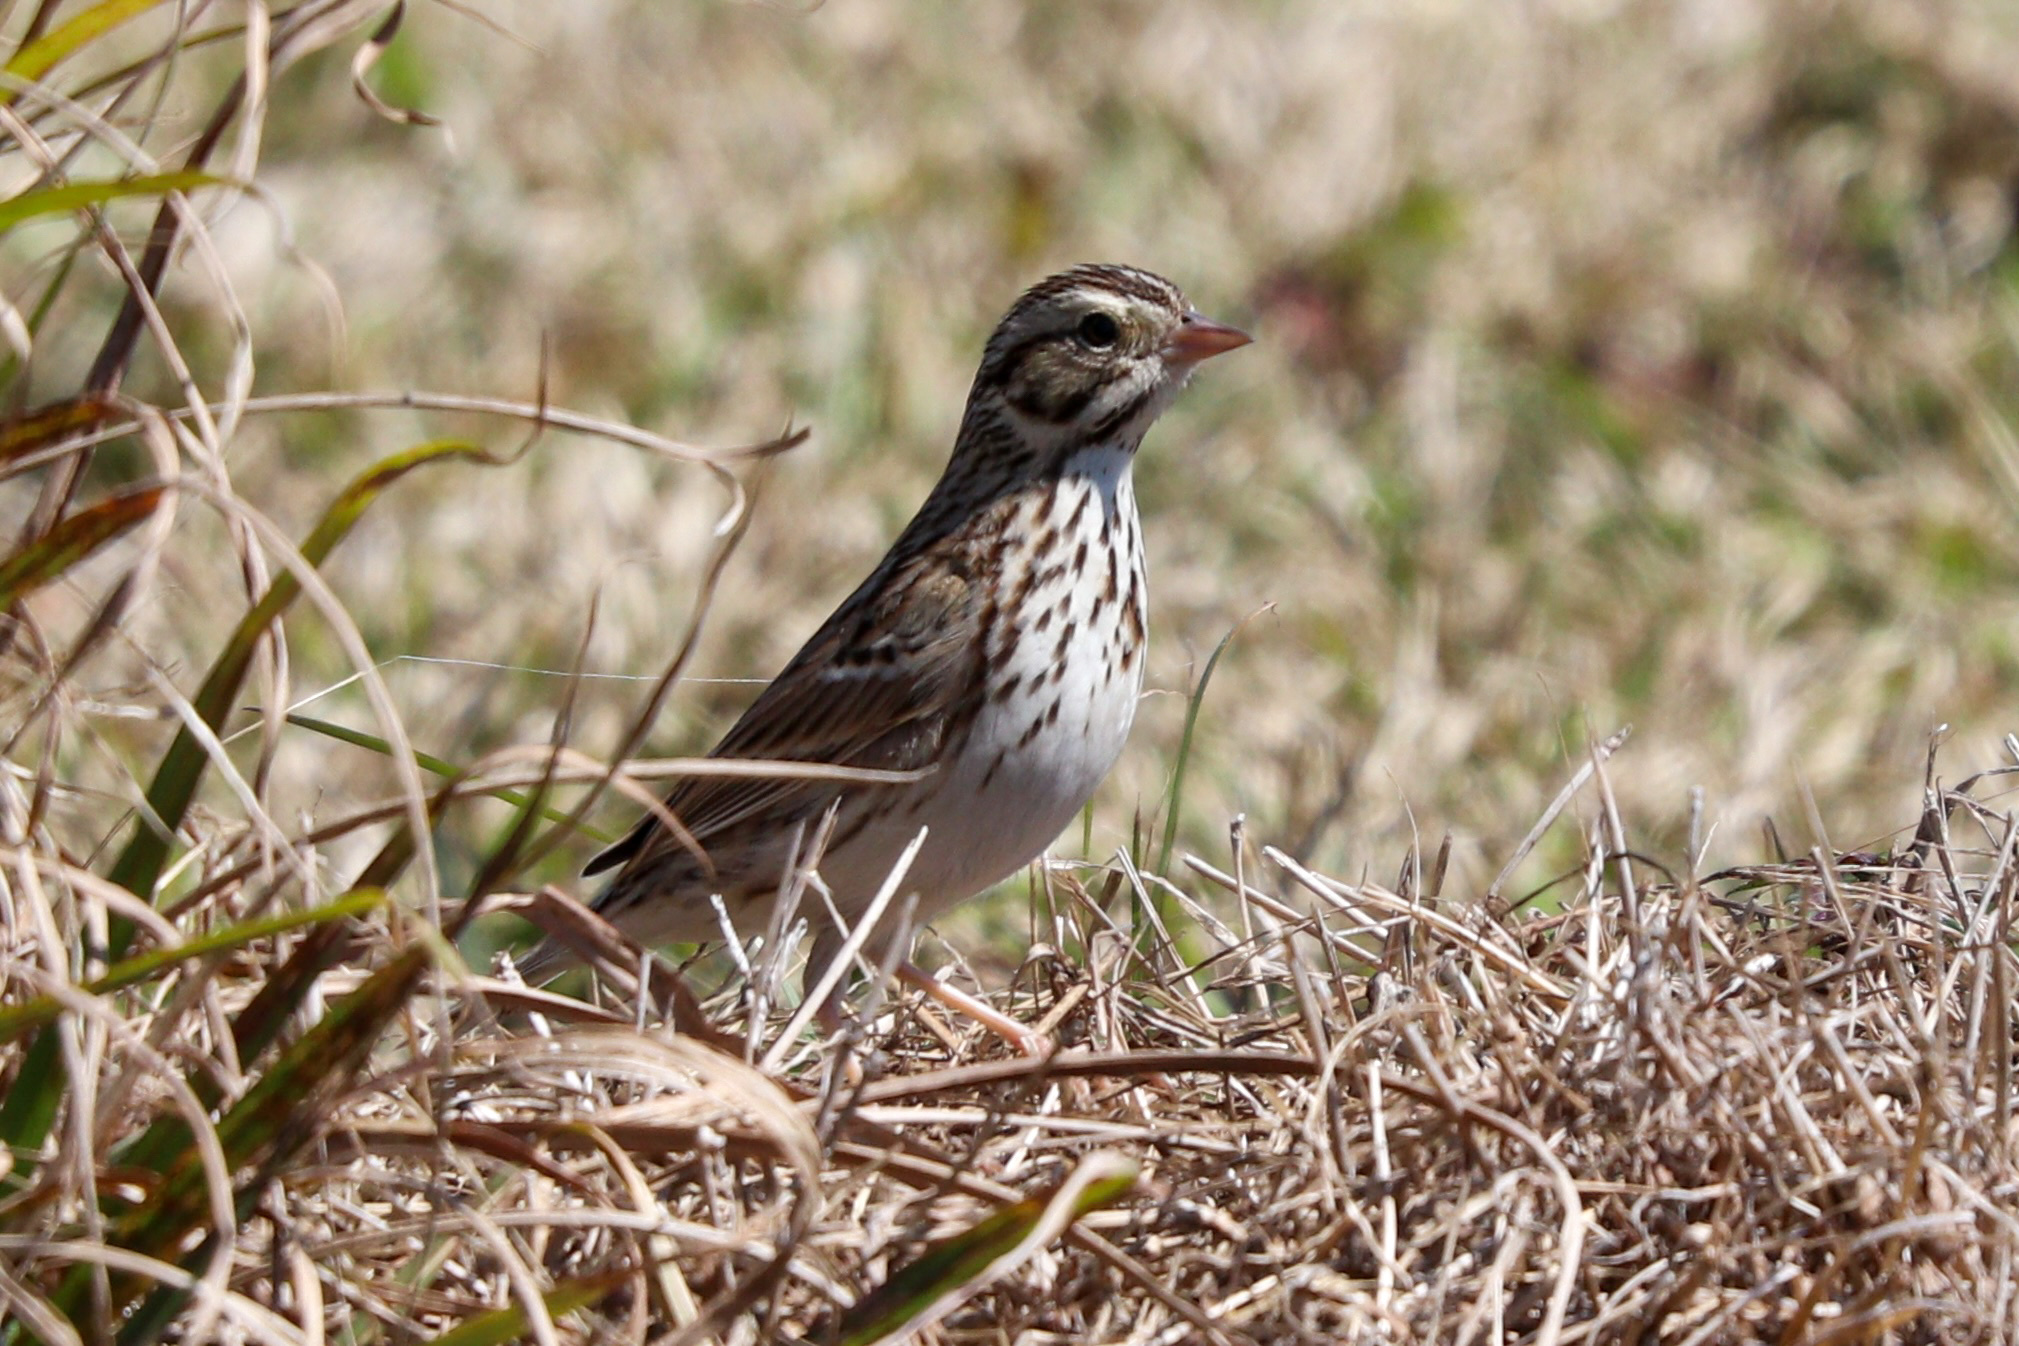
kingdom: Animalia
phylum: Chordata
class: Aves
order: Passeriformes
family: Passerellidae
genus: Passerculus
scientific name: Passerculus sandwichensis
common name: Savannah sparrow
